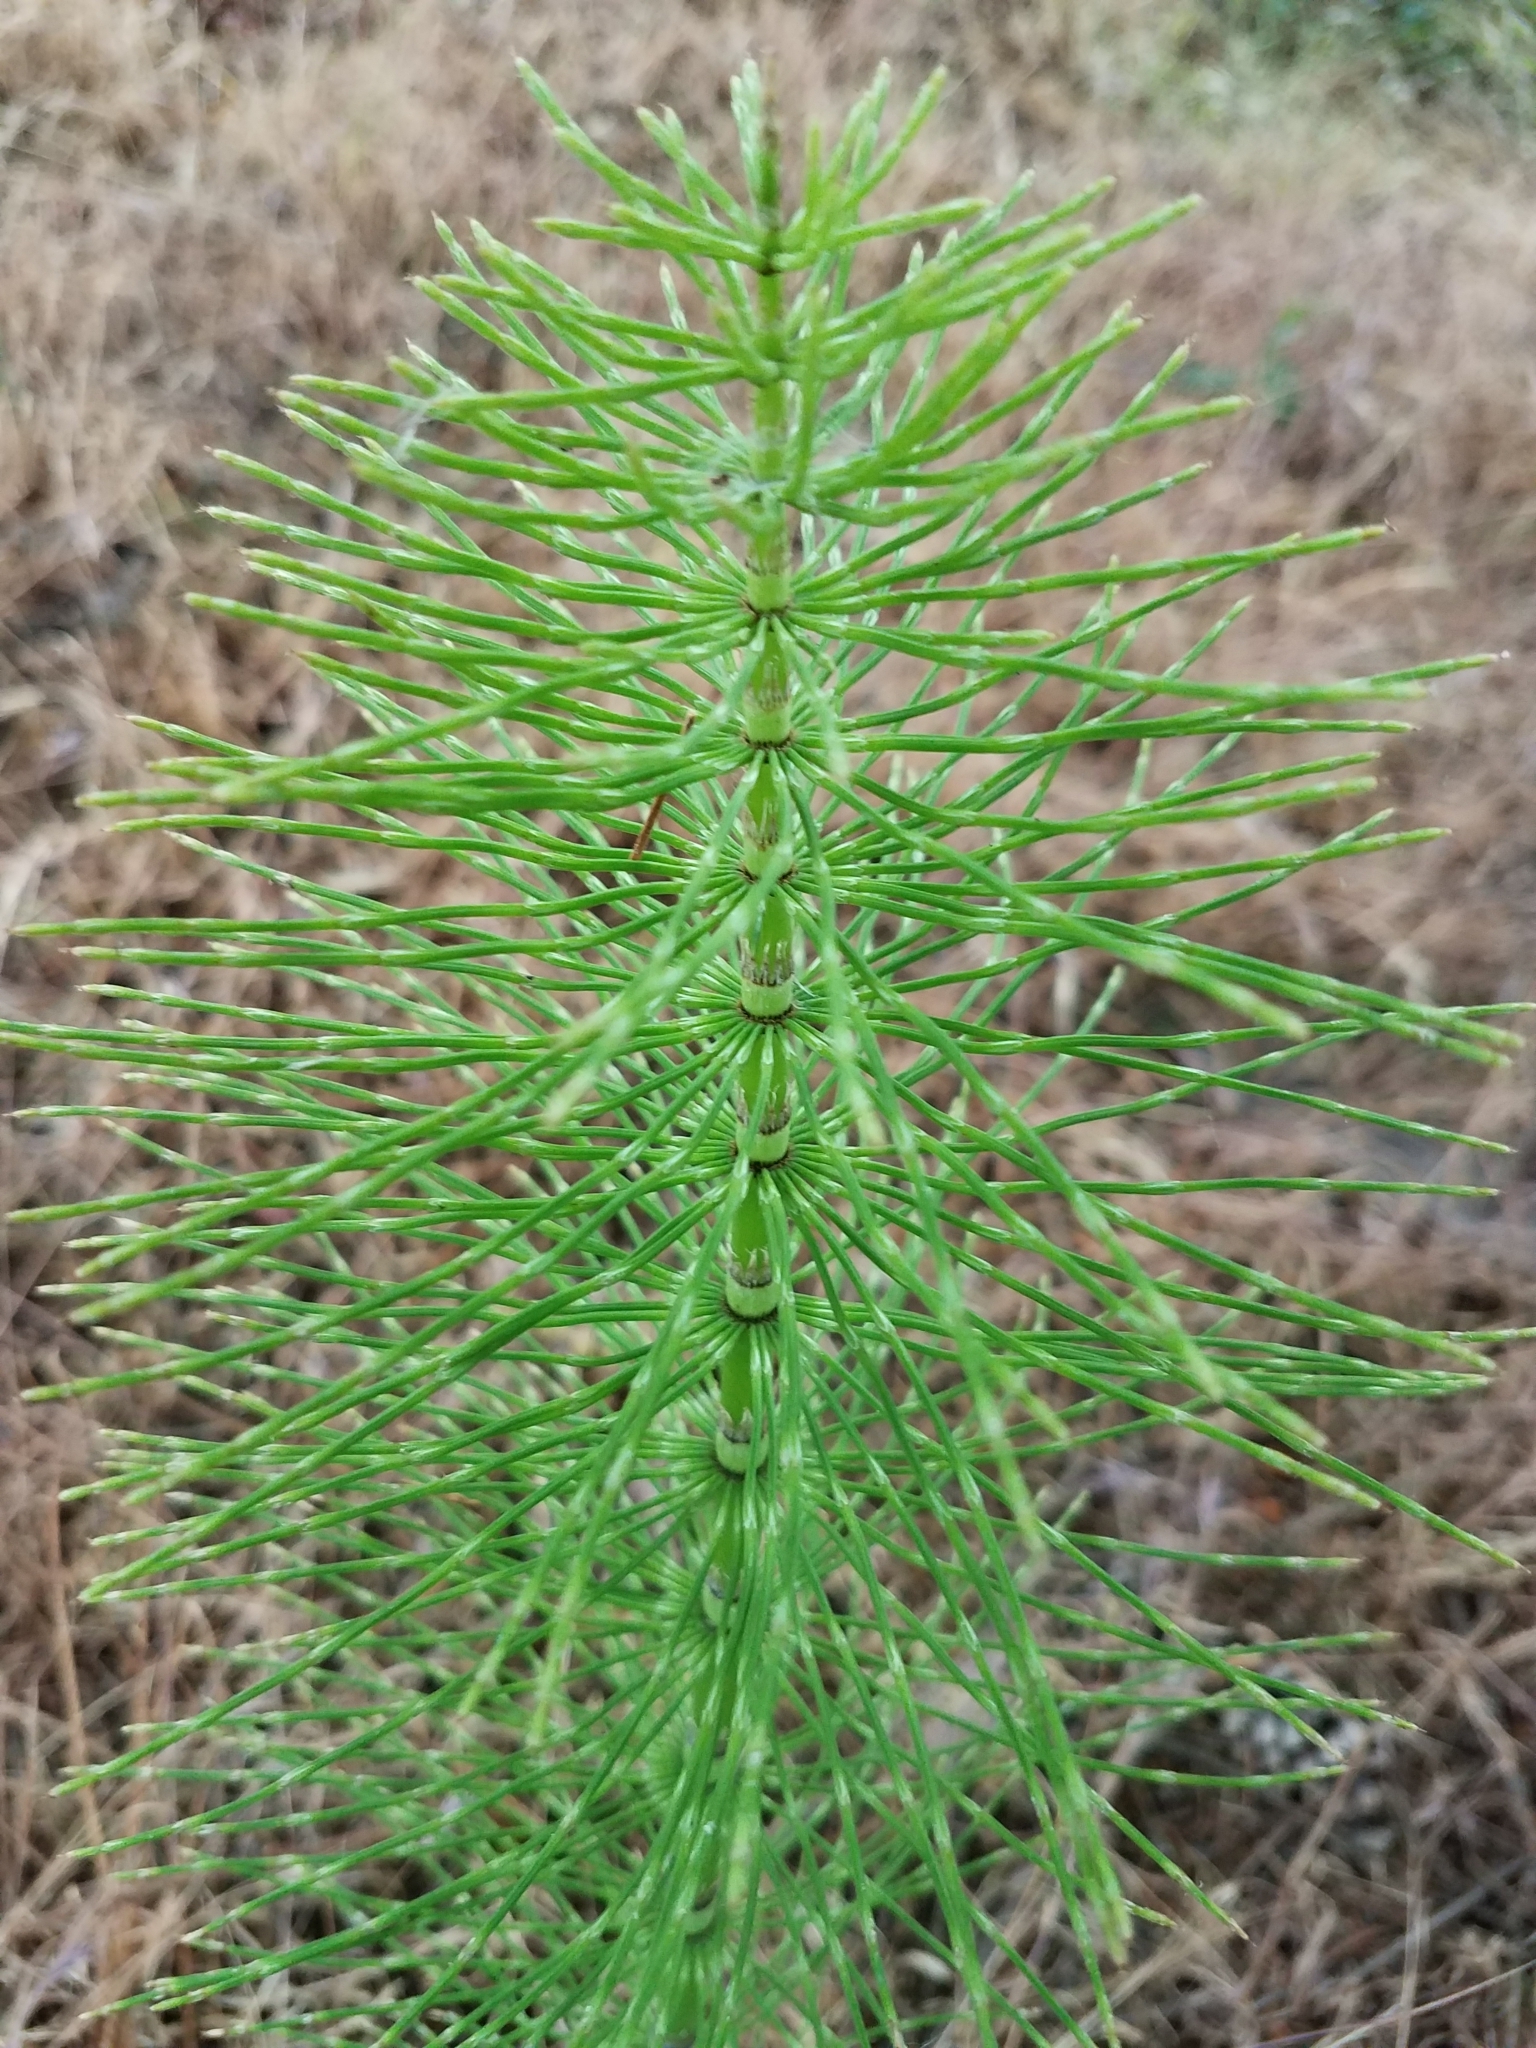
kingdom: Plantae
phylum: Tracheophyta
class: Polypodiopsida
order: Equisetales
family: Equisetaceae
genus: Equisetum
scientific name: Equisetum telmateia
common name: Great horsetail
